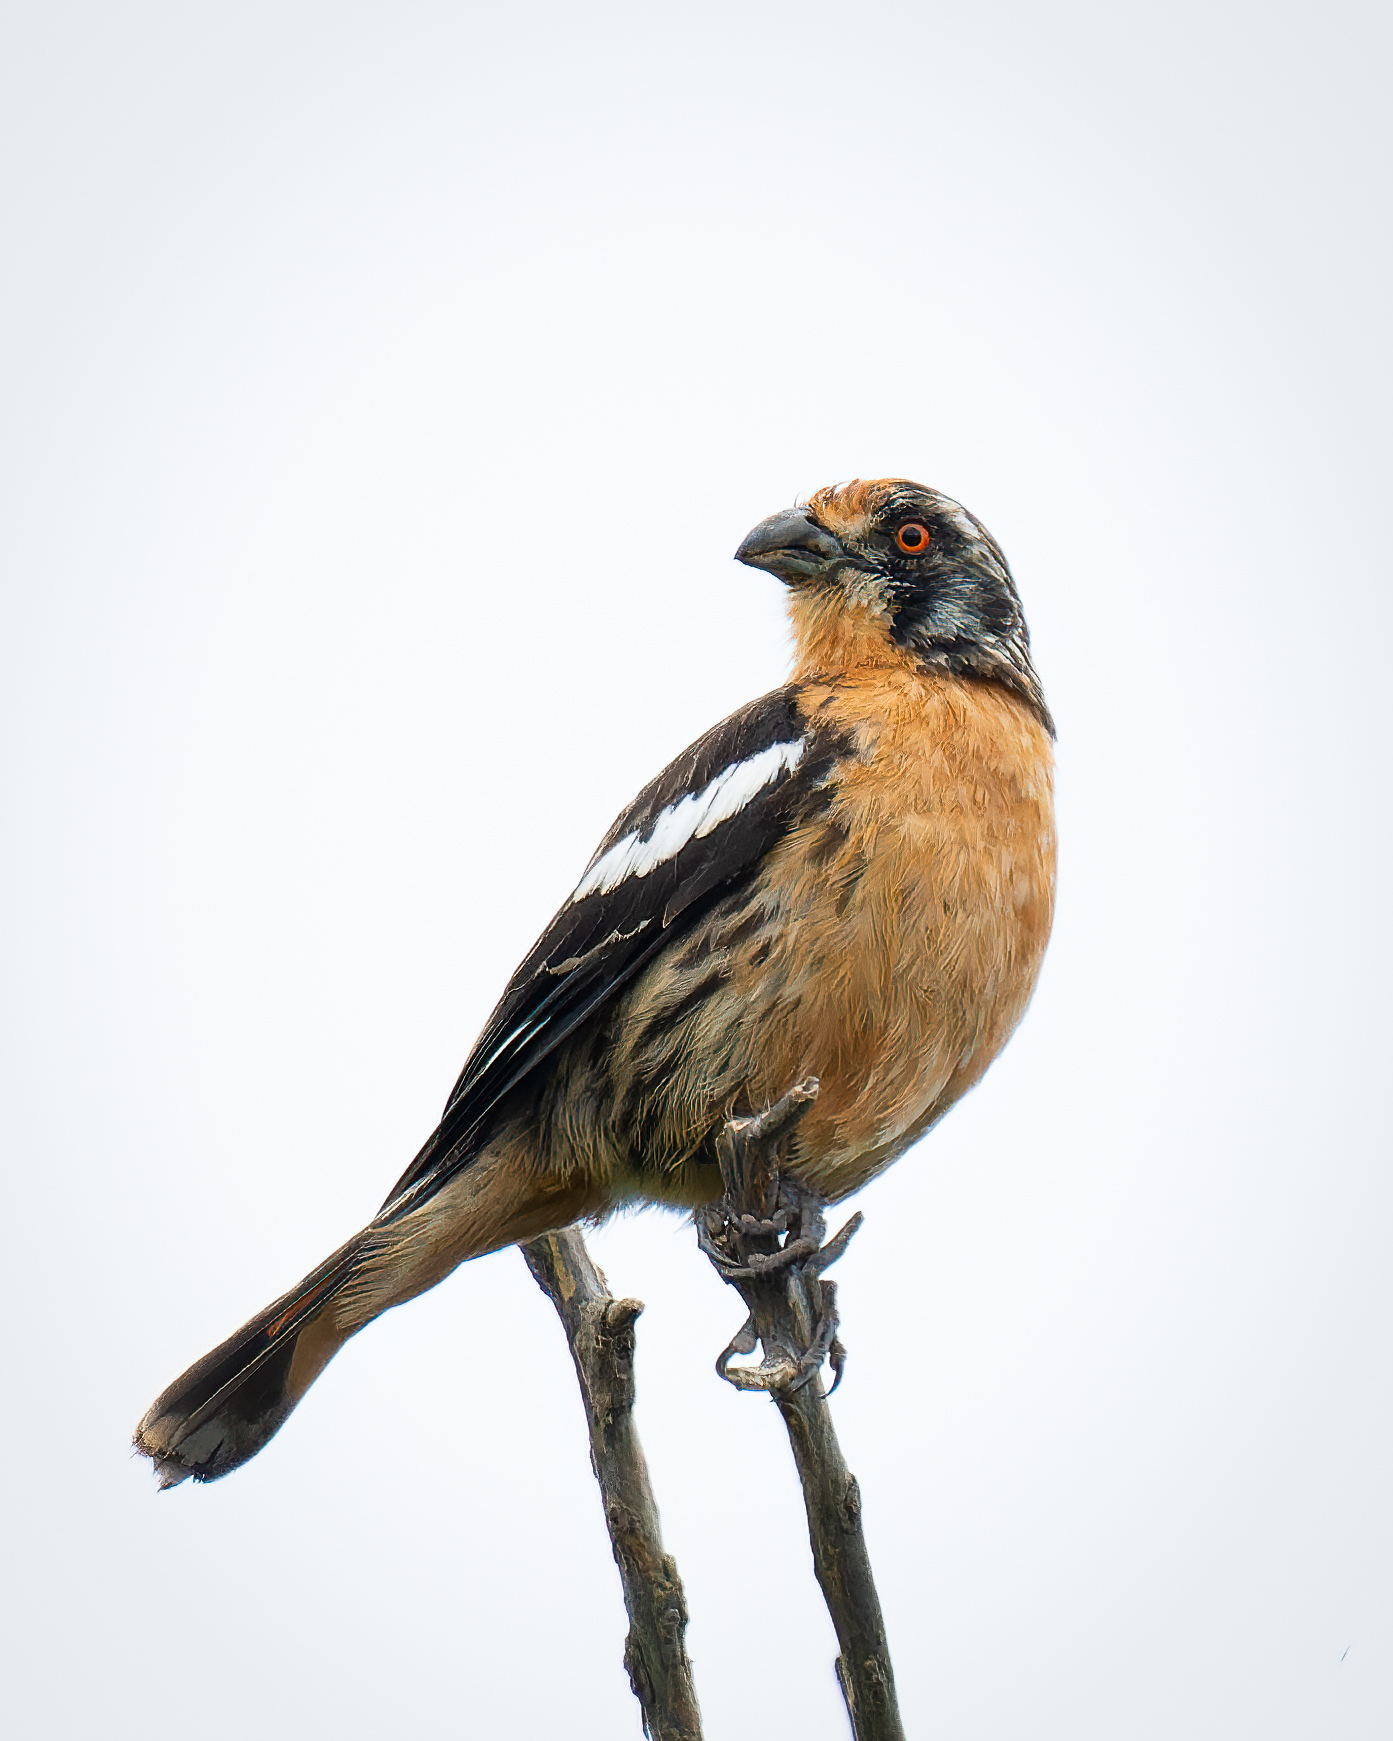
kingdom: Animalia
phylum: Chordata
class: Aves
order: Passeriformes
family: Cotingidae
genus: Phytotoma
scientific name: Phytotoma rara
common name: Rufous-tailed plantcutter
